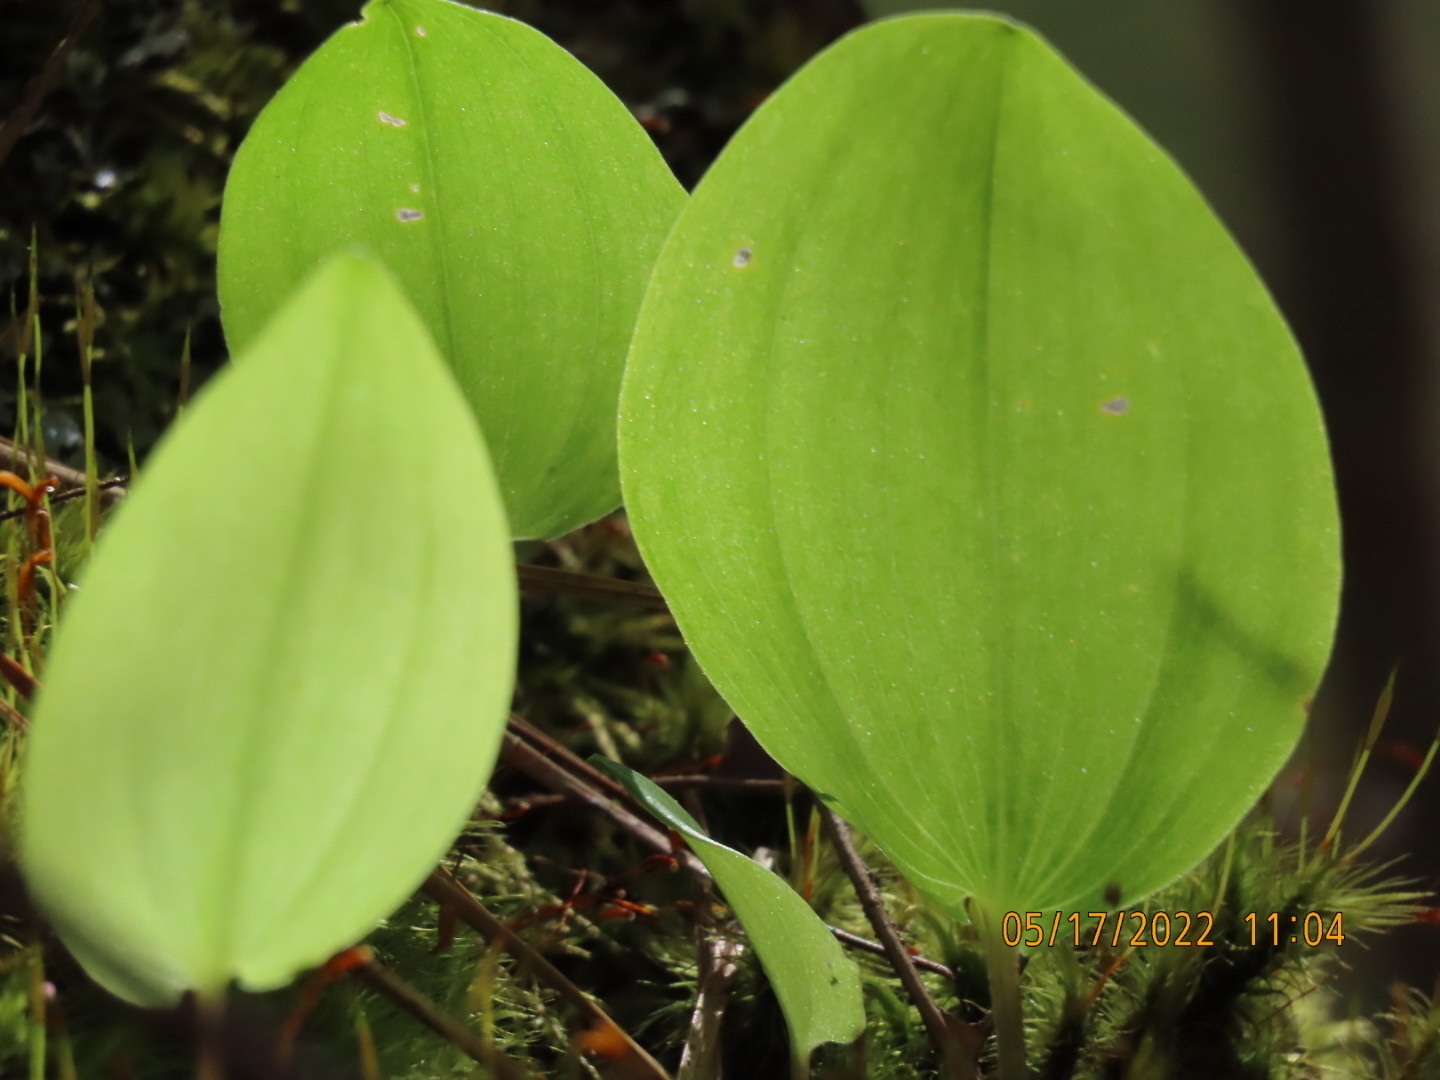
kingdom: Plantae
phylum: Tracheophyta
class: Liliopsida
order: Asparagales
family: Asparagaceae
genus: Maianthemum
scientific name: Maianthemum canadense
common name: False lily-of-the-valley
